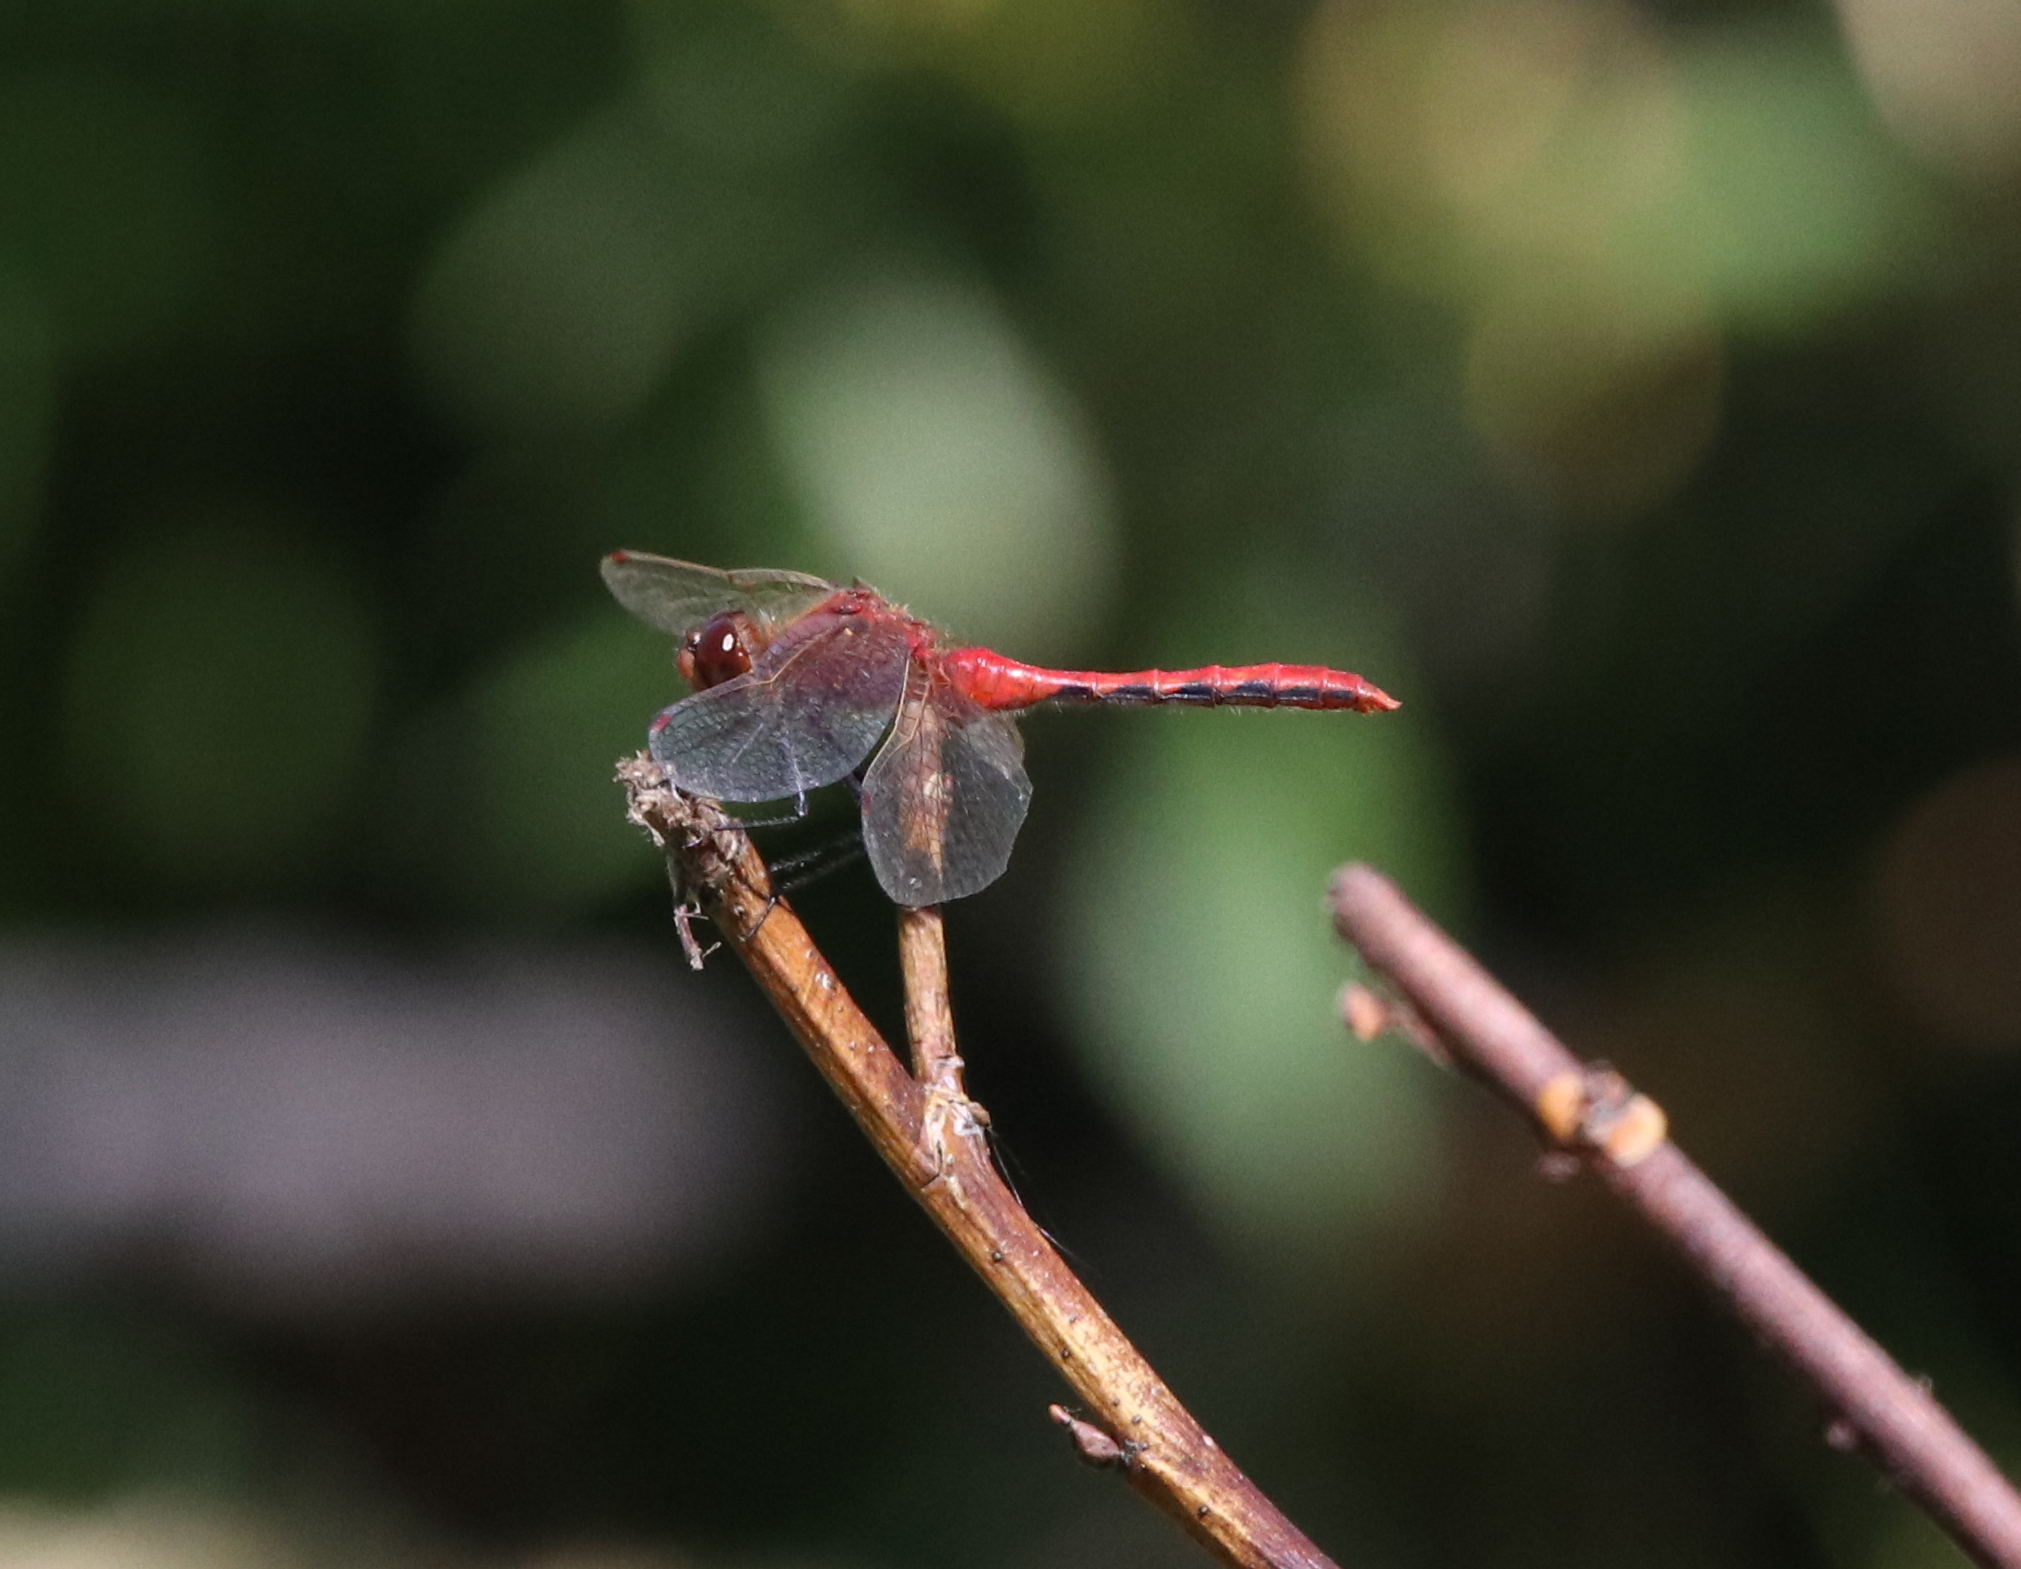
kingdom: Animalia
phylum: Arthropoda
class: Insecta
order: Odonata
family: Libellulidae
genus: Sympetrum
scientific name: Sympetrum internum
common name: Cherry-faced meadowhawk
